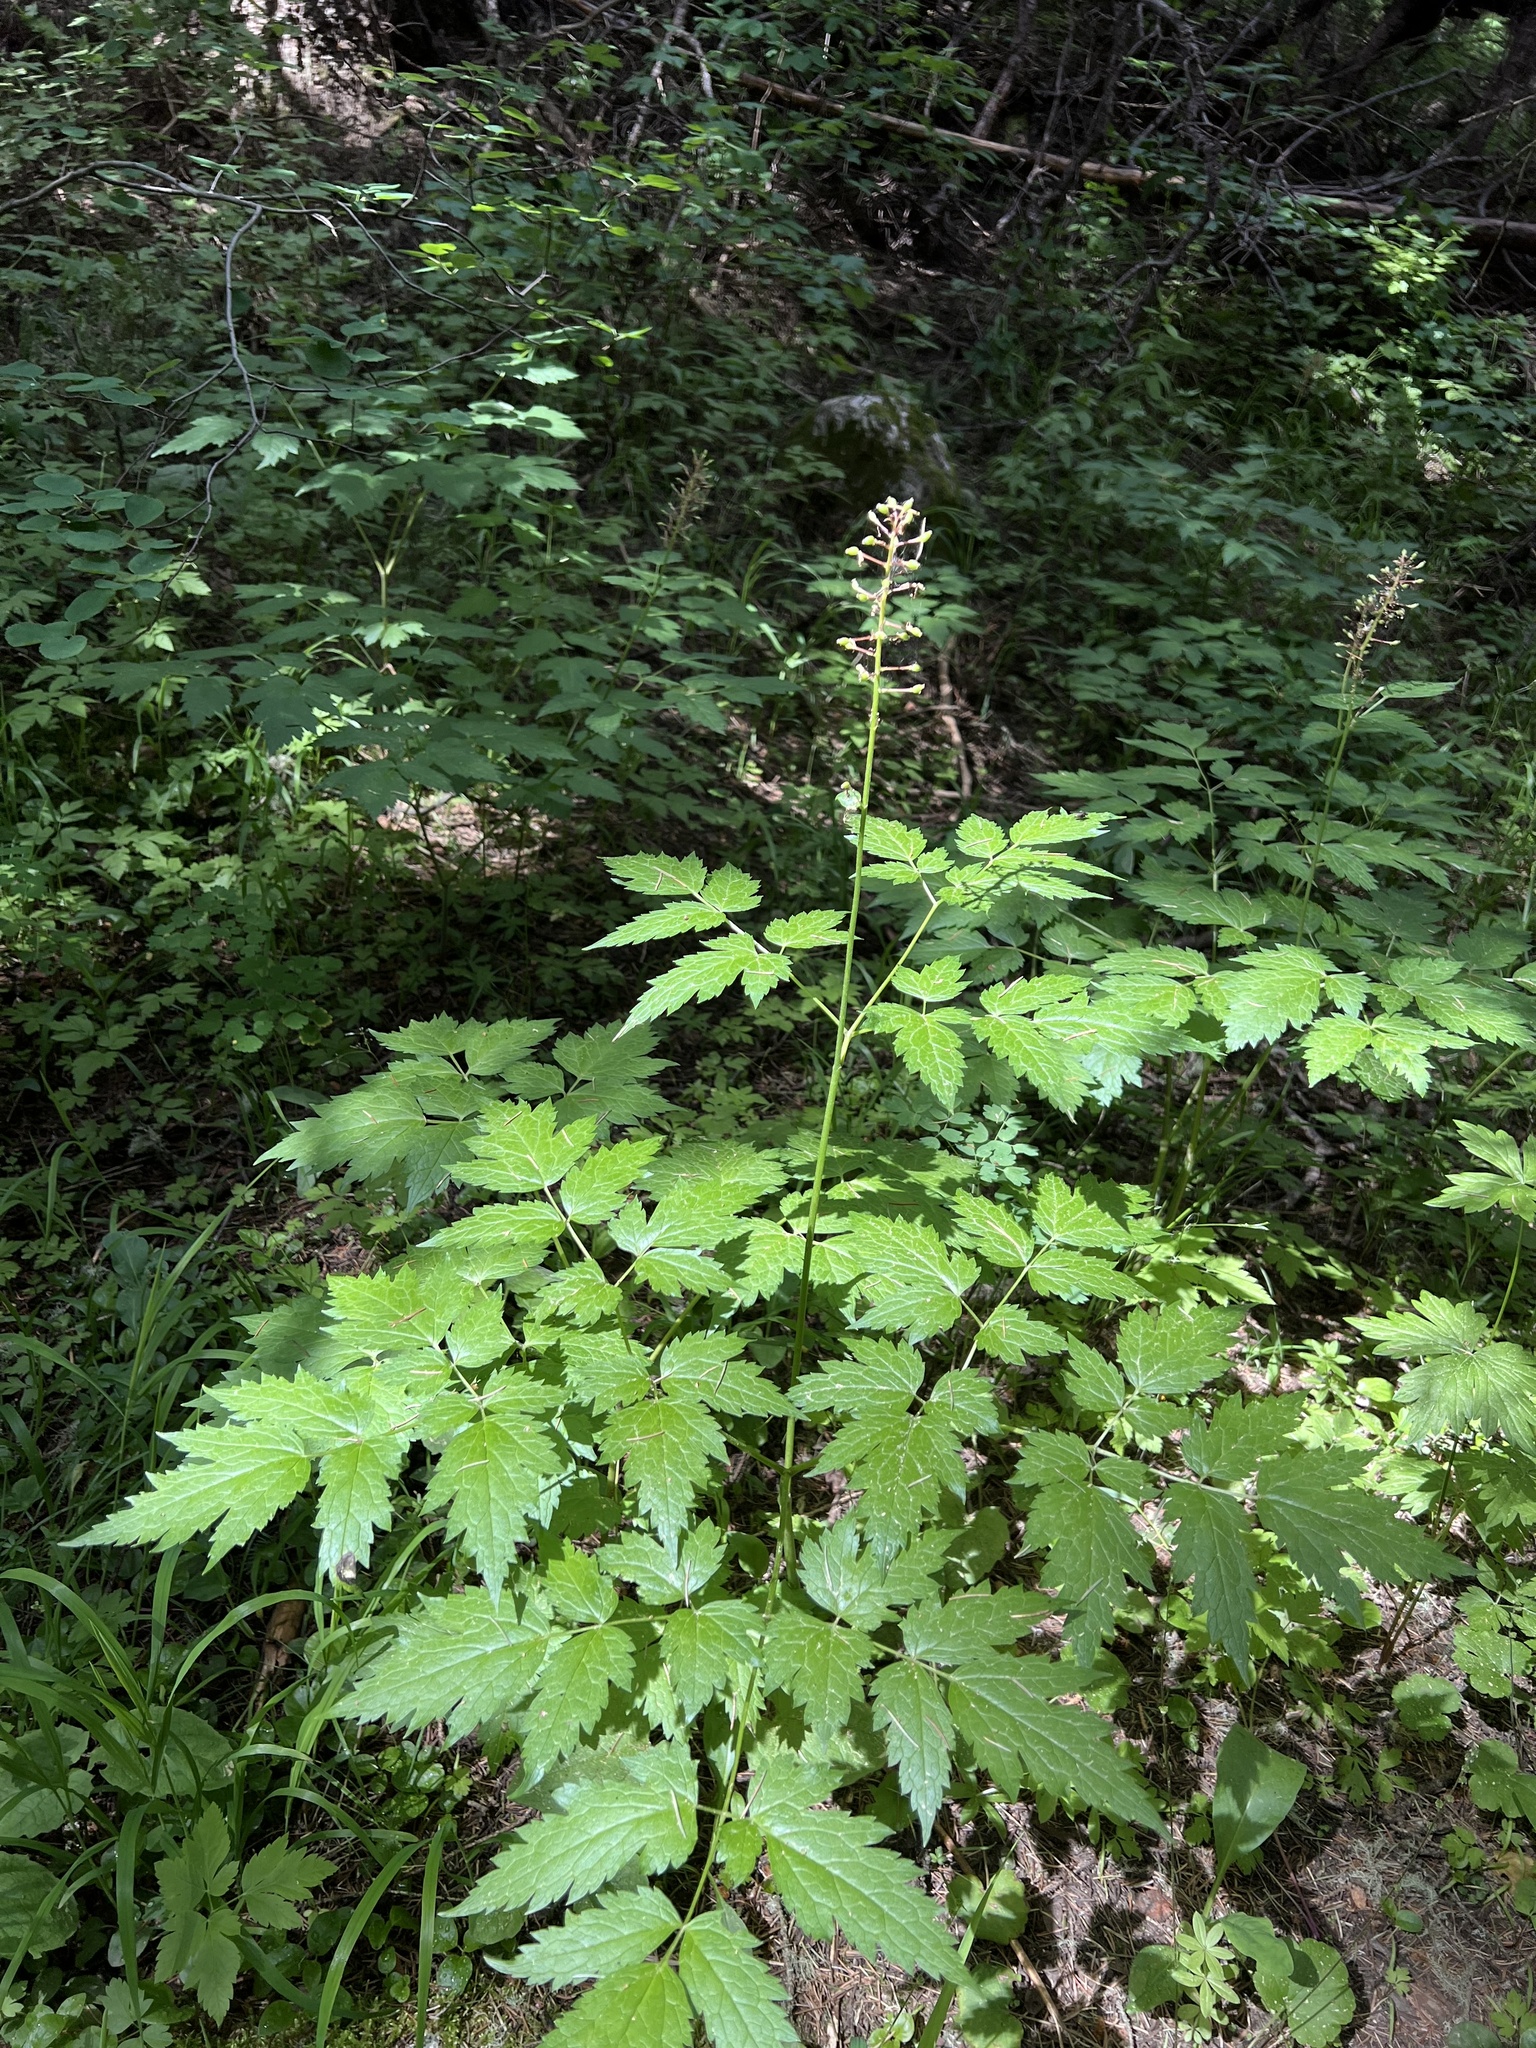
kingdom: Plantae
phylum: Tracheophyta
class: Magnoliopsida
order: Ranunculales
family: Ranunculaceae
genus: Actaea
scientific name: Actaea rubra
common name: Red baneberry
